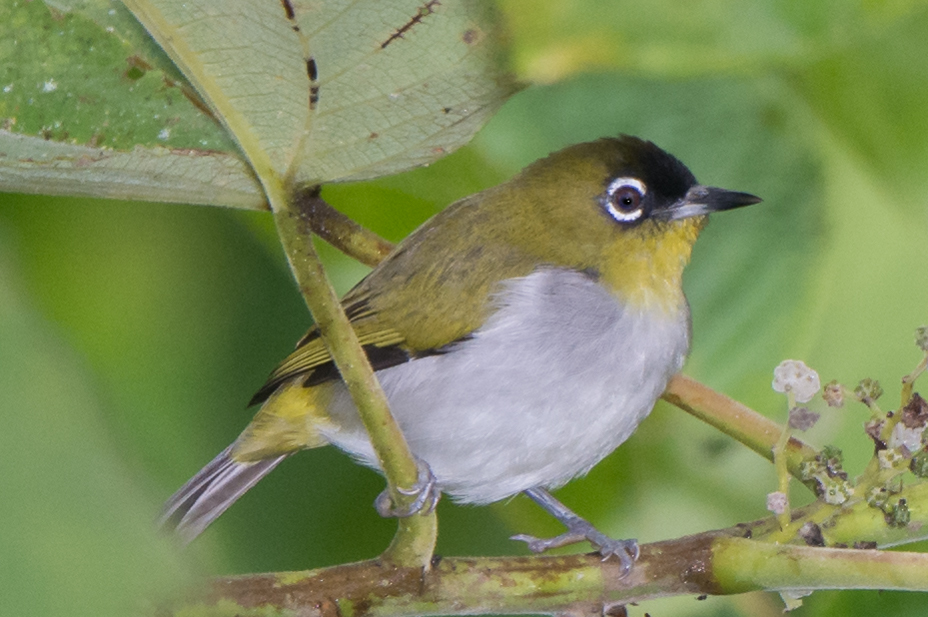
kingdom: Animalia
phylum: Chordata
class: Aves
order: Passeriformes
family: Zosteropidae
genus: Zosterops
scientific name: Zosterops atrifrons
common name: Black-crowned white-eye
